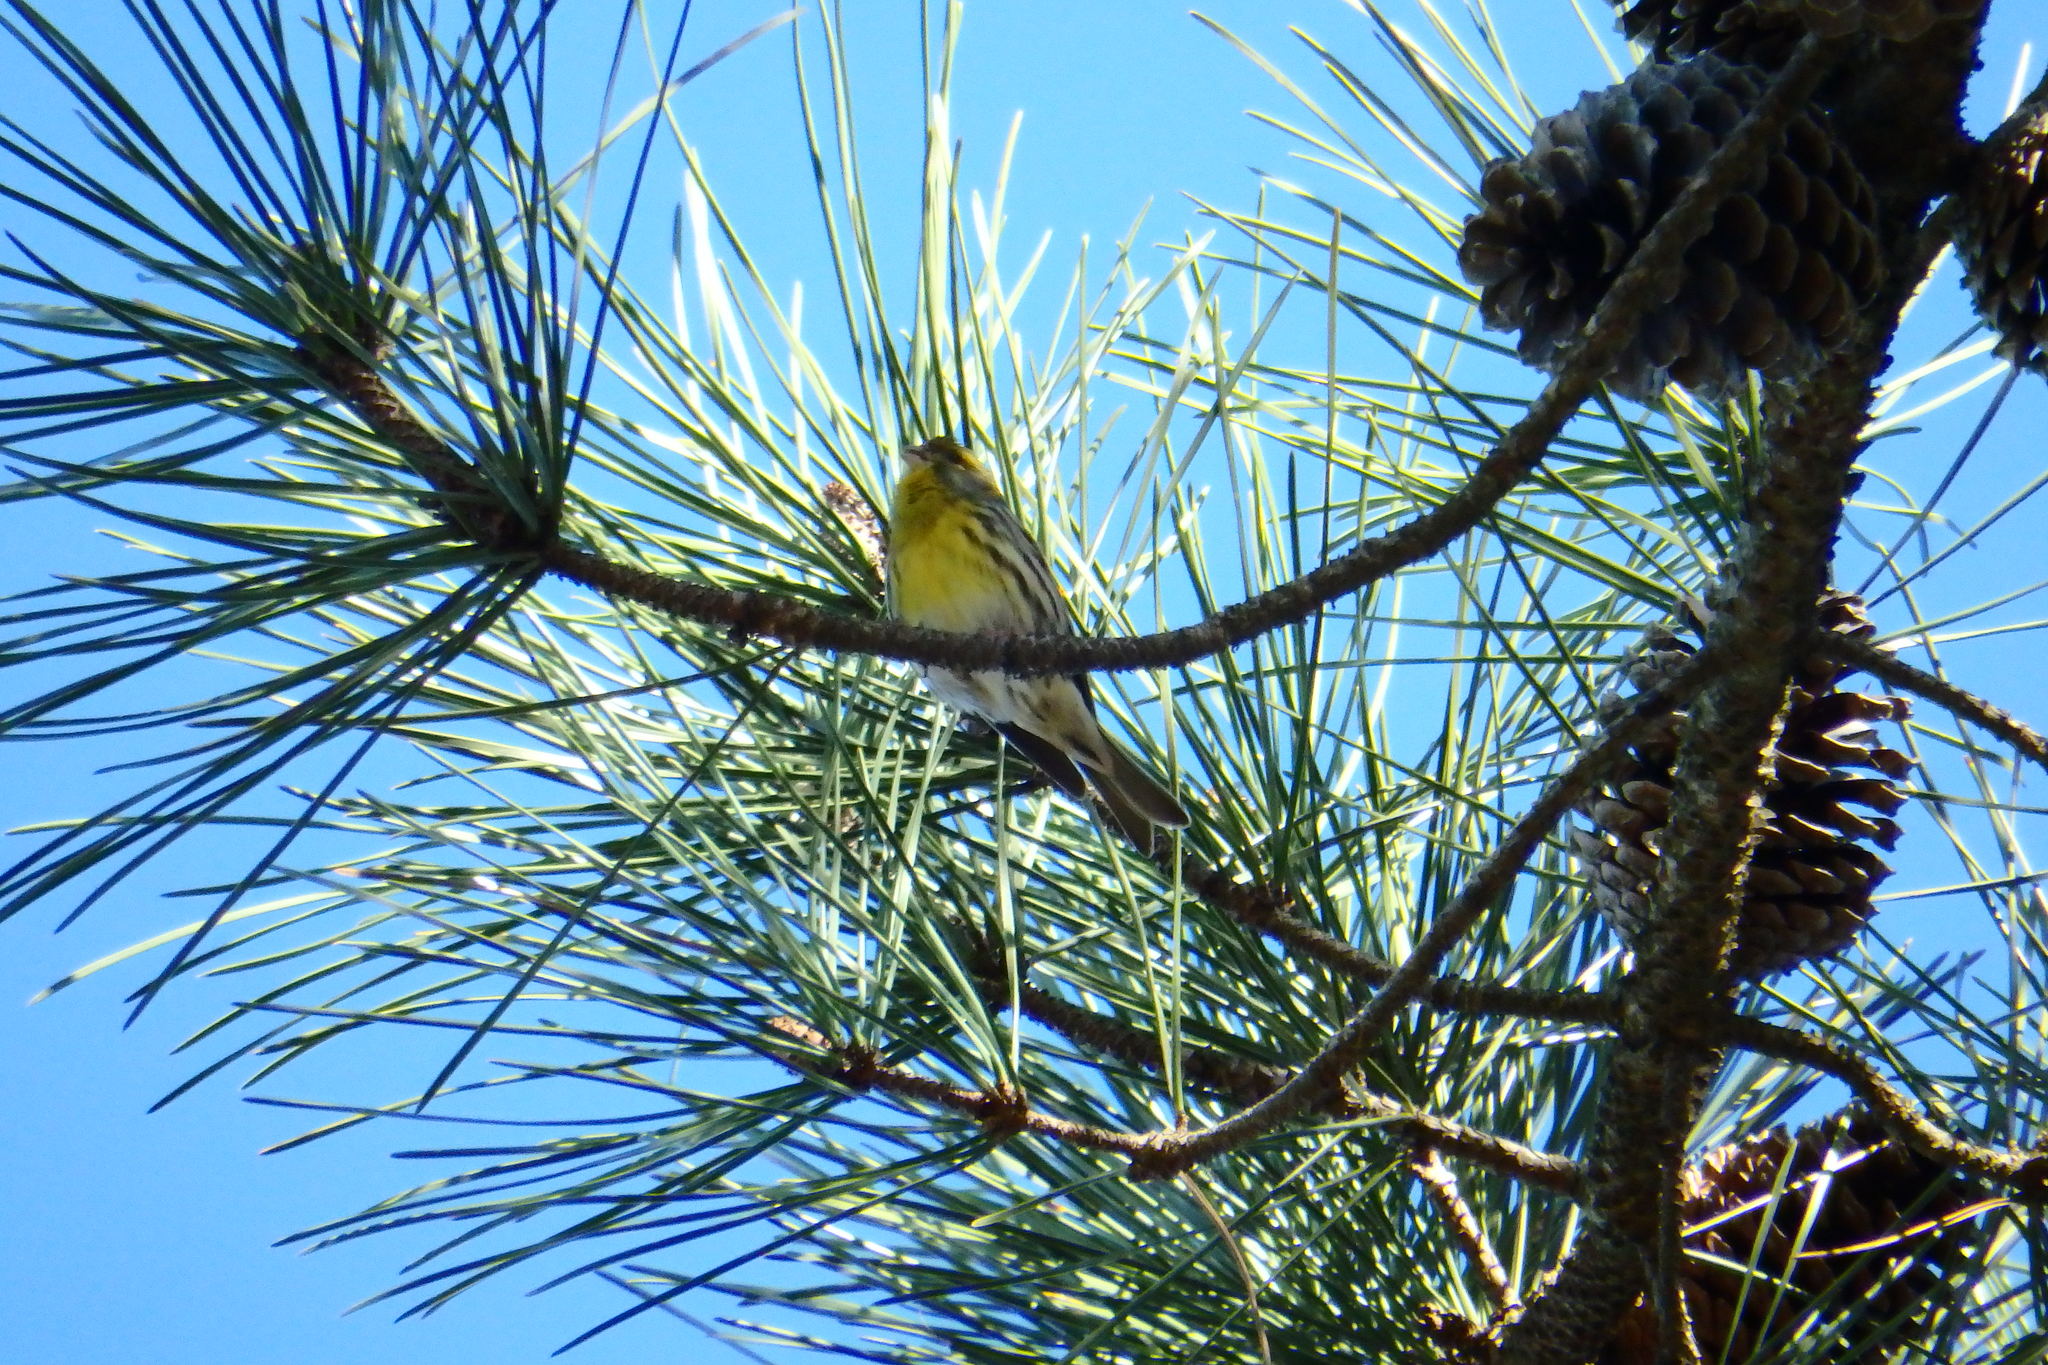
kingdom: Animalia
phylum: Chordata
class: Aves
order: Passeriformes
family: Fringillidae
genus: Serinus
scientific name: Serinus serinus
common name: European serin
